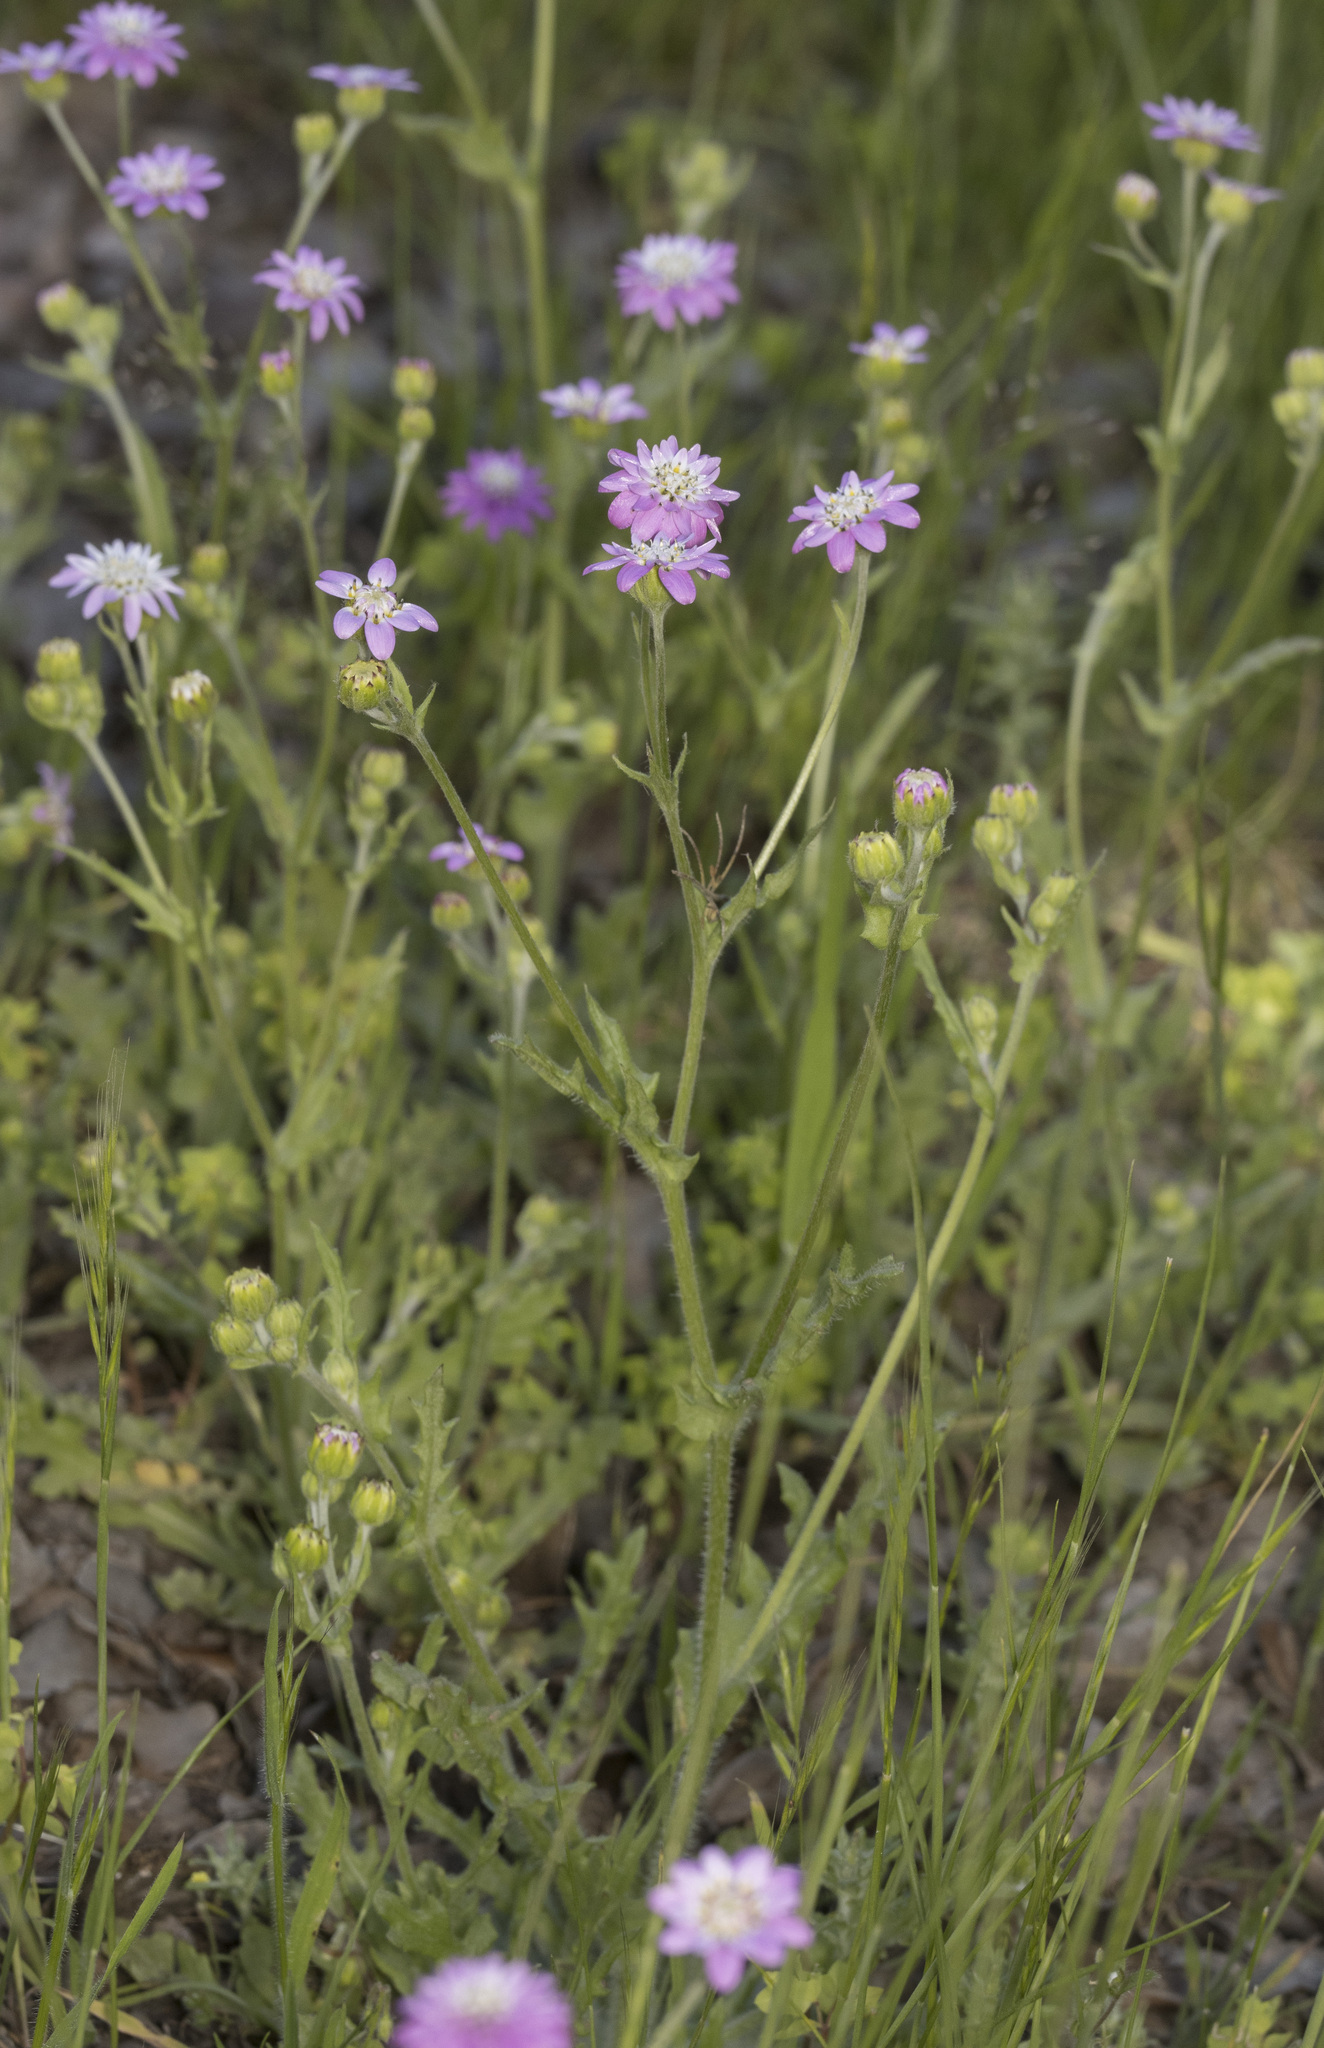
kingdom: Plantae
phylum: Tracheophyta
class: Magnoliopsida
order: Asterales
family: Asteraceae
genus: Leucheria
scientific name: Leucheria glandulosa
